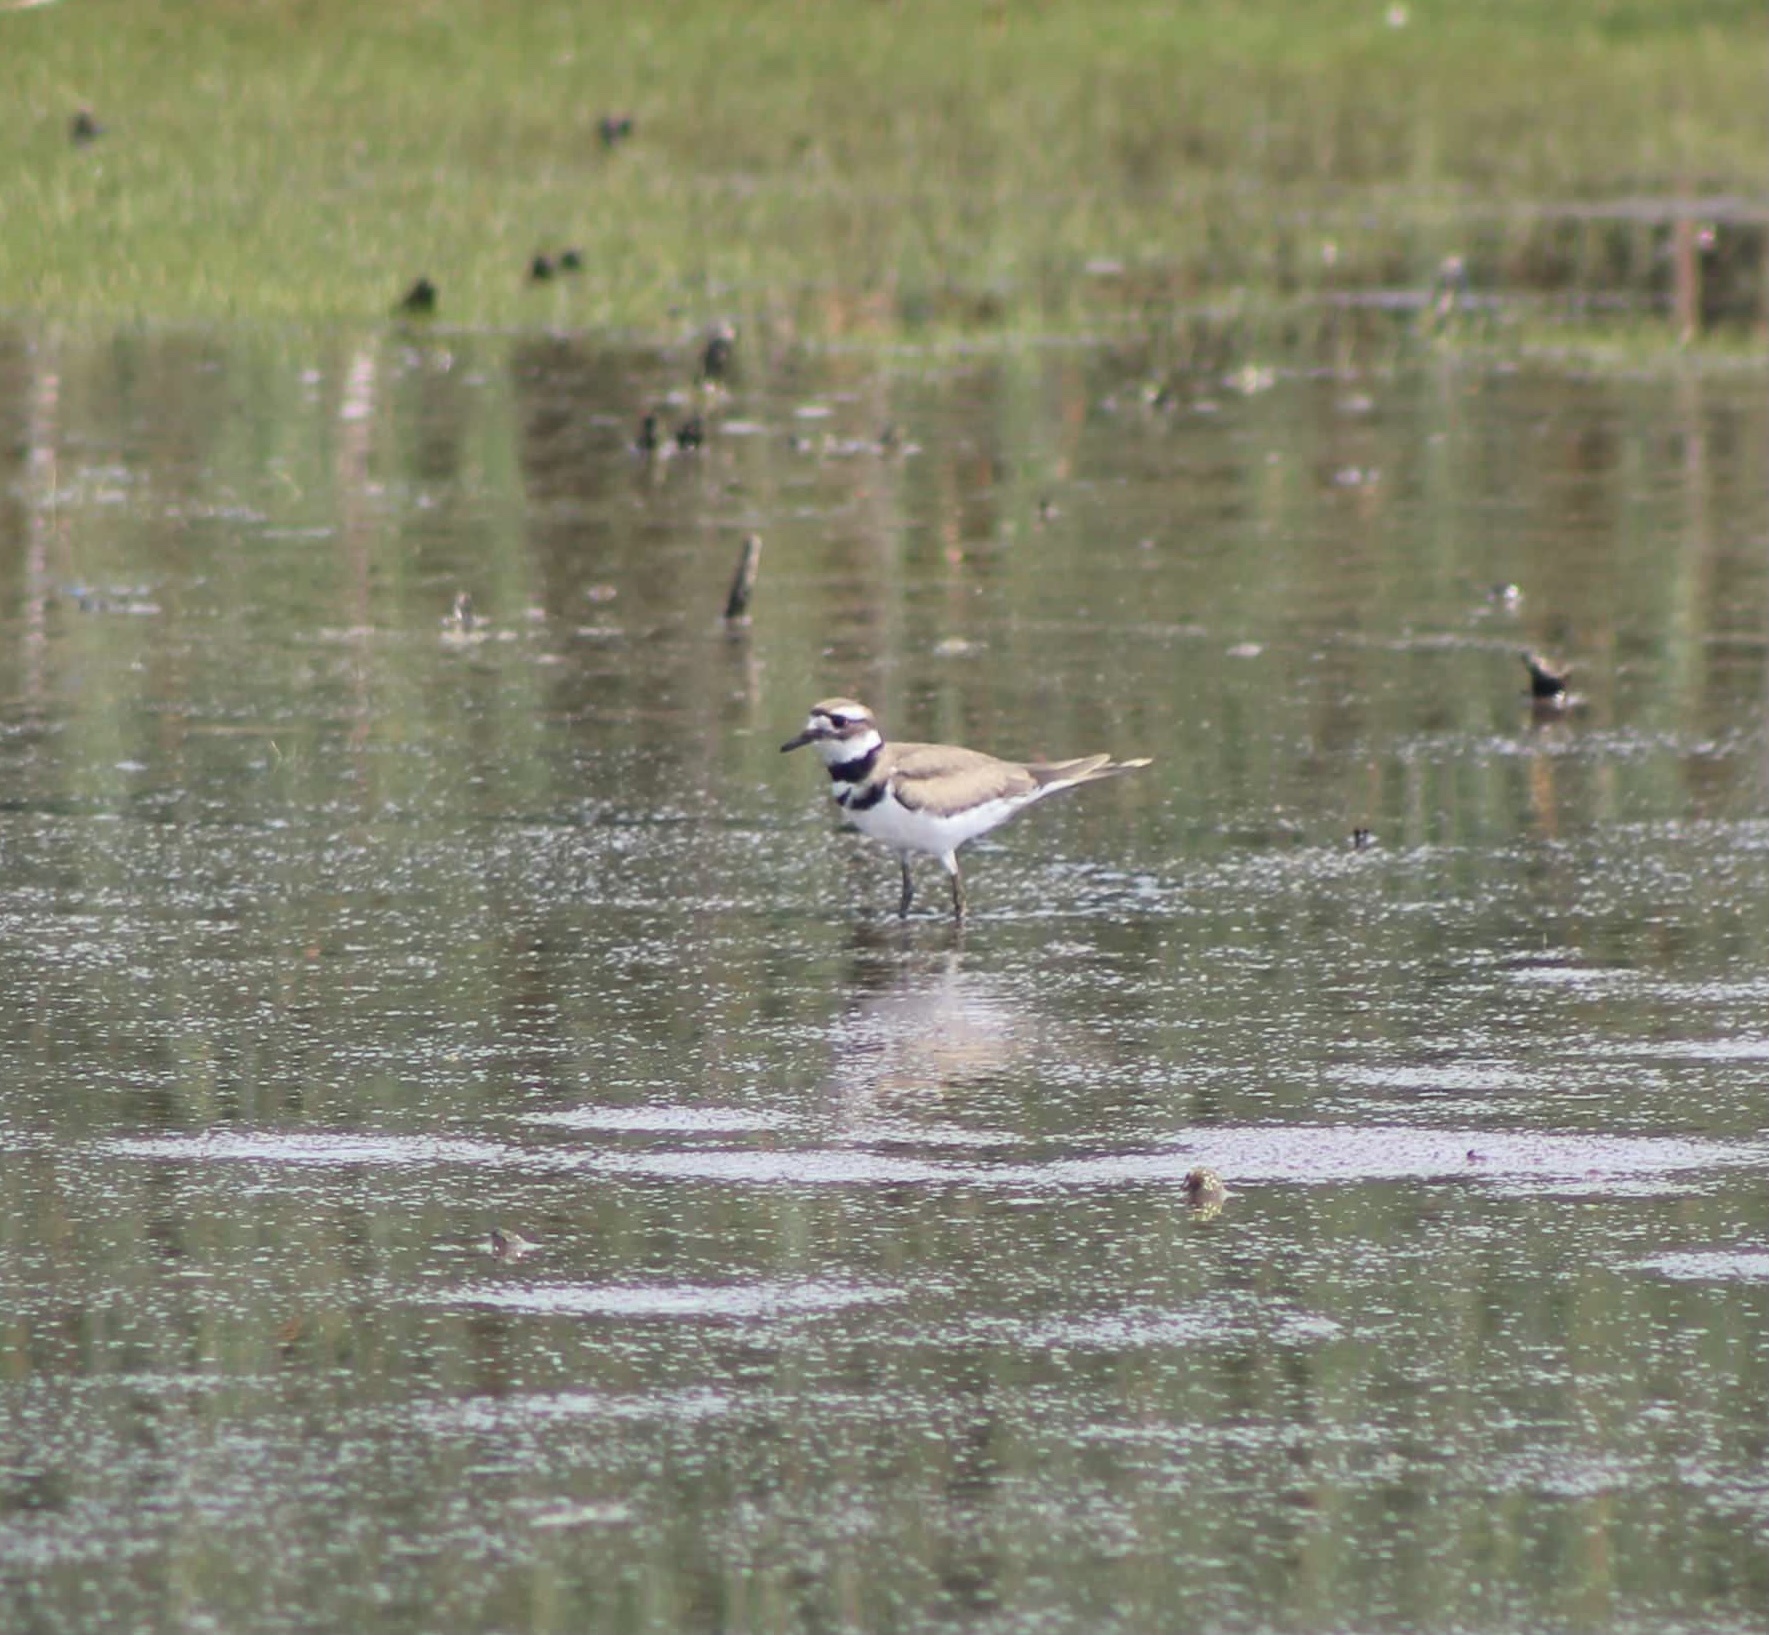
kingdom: Animalia
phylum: Chordata
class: Aves
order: Charadriiformes
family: Charadriidae
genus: Charadrius
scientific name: Charadrius vociferus
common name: Killdeer
